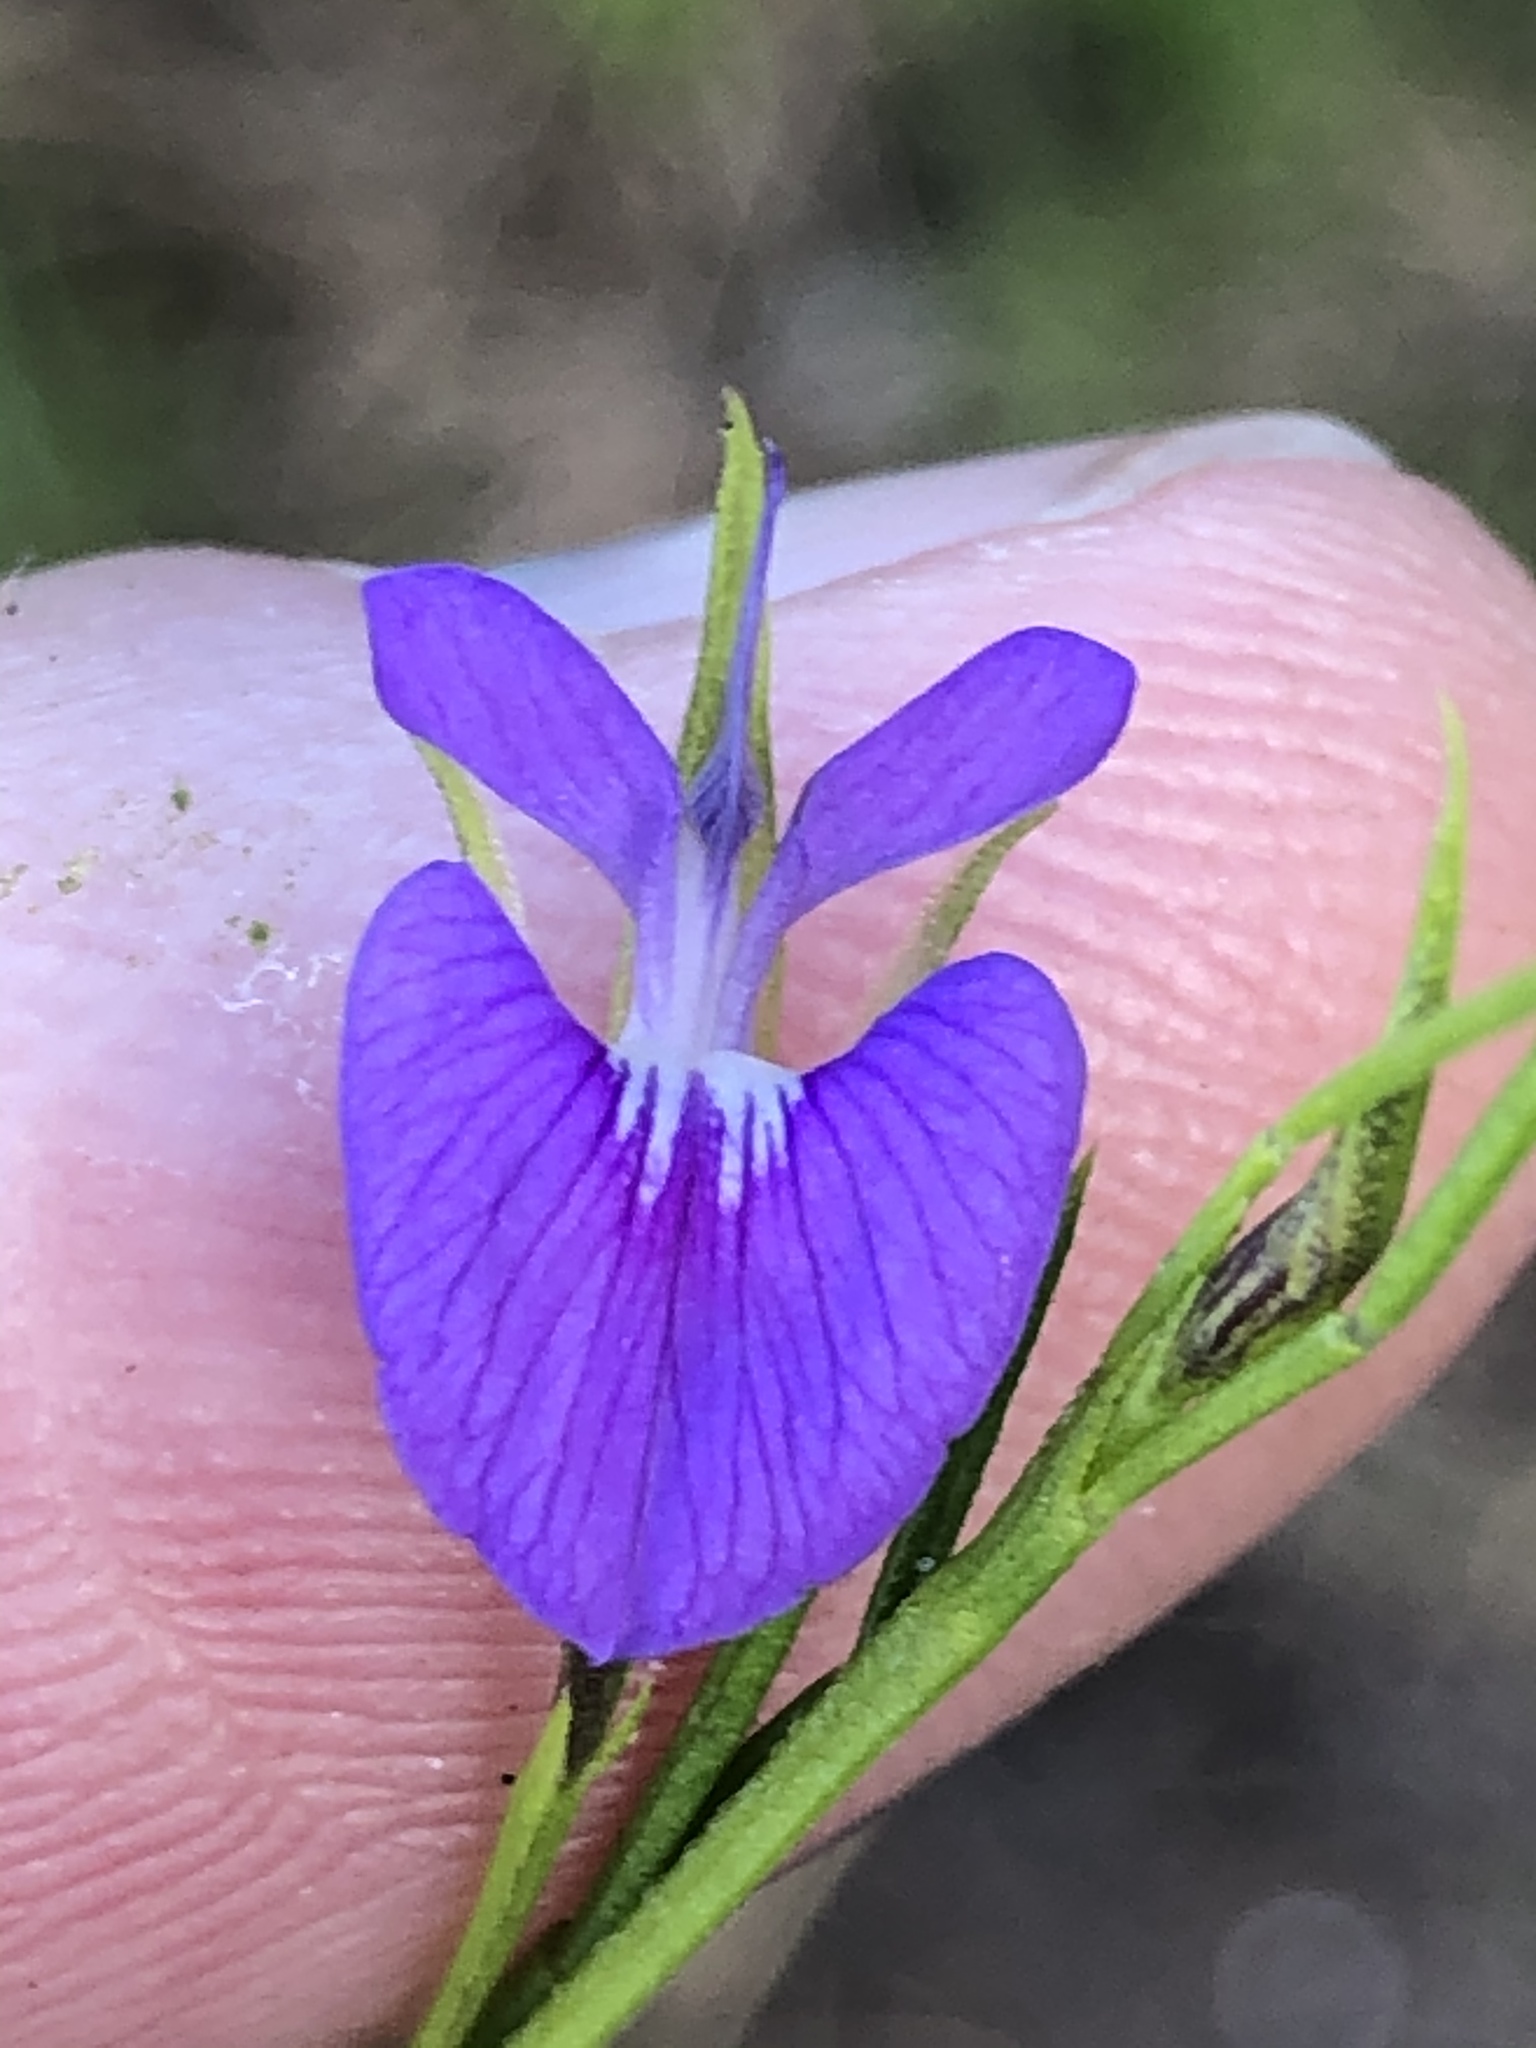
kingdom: Plantae
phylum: Tracheophyta
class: Magnoliopsida
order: Fabales
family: Fabaceae
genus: Psoralea
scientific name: Psoralea trullata
